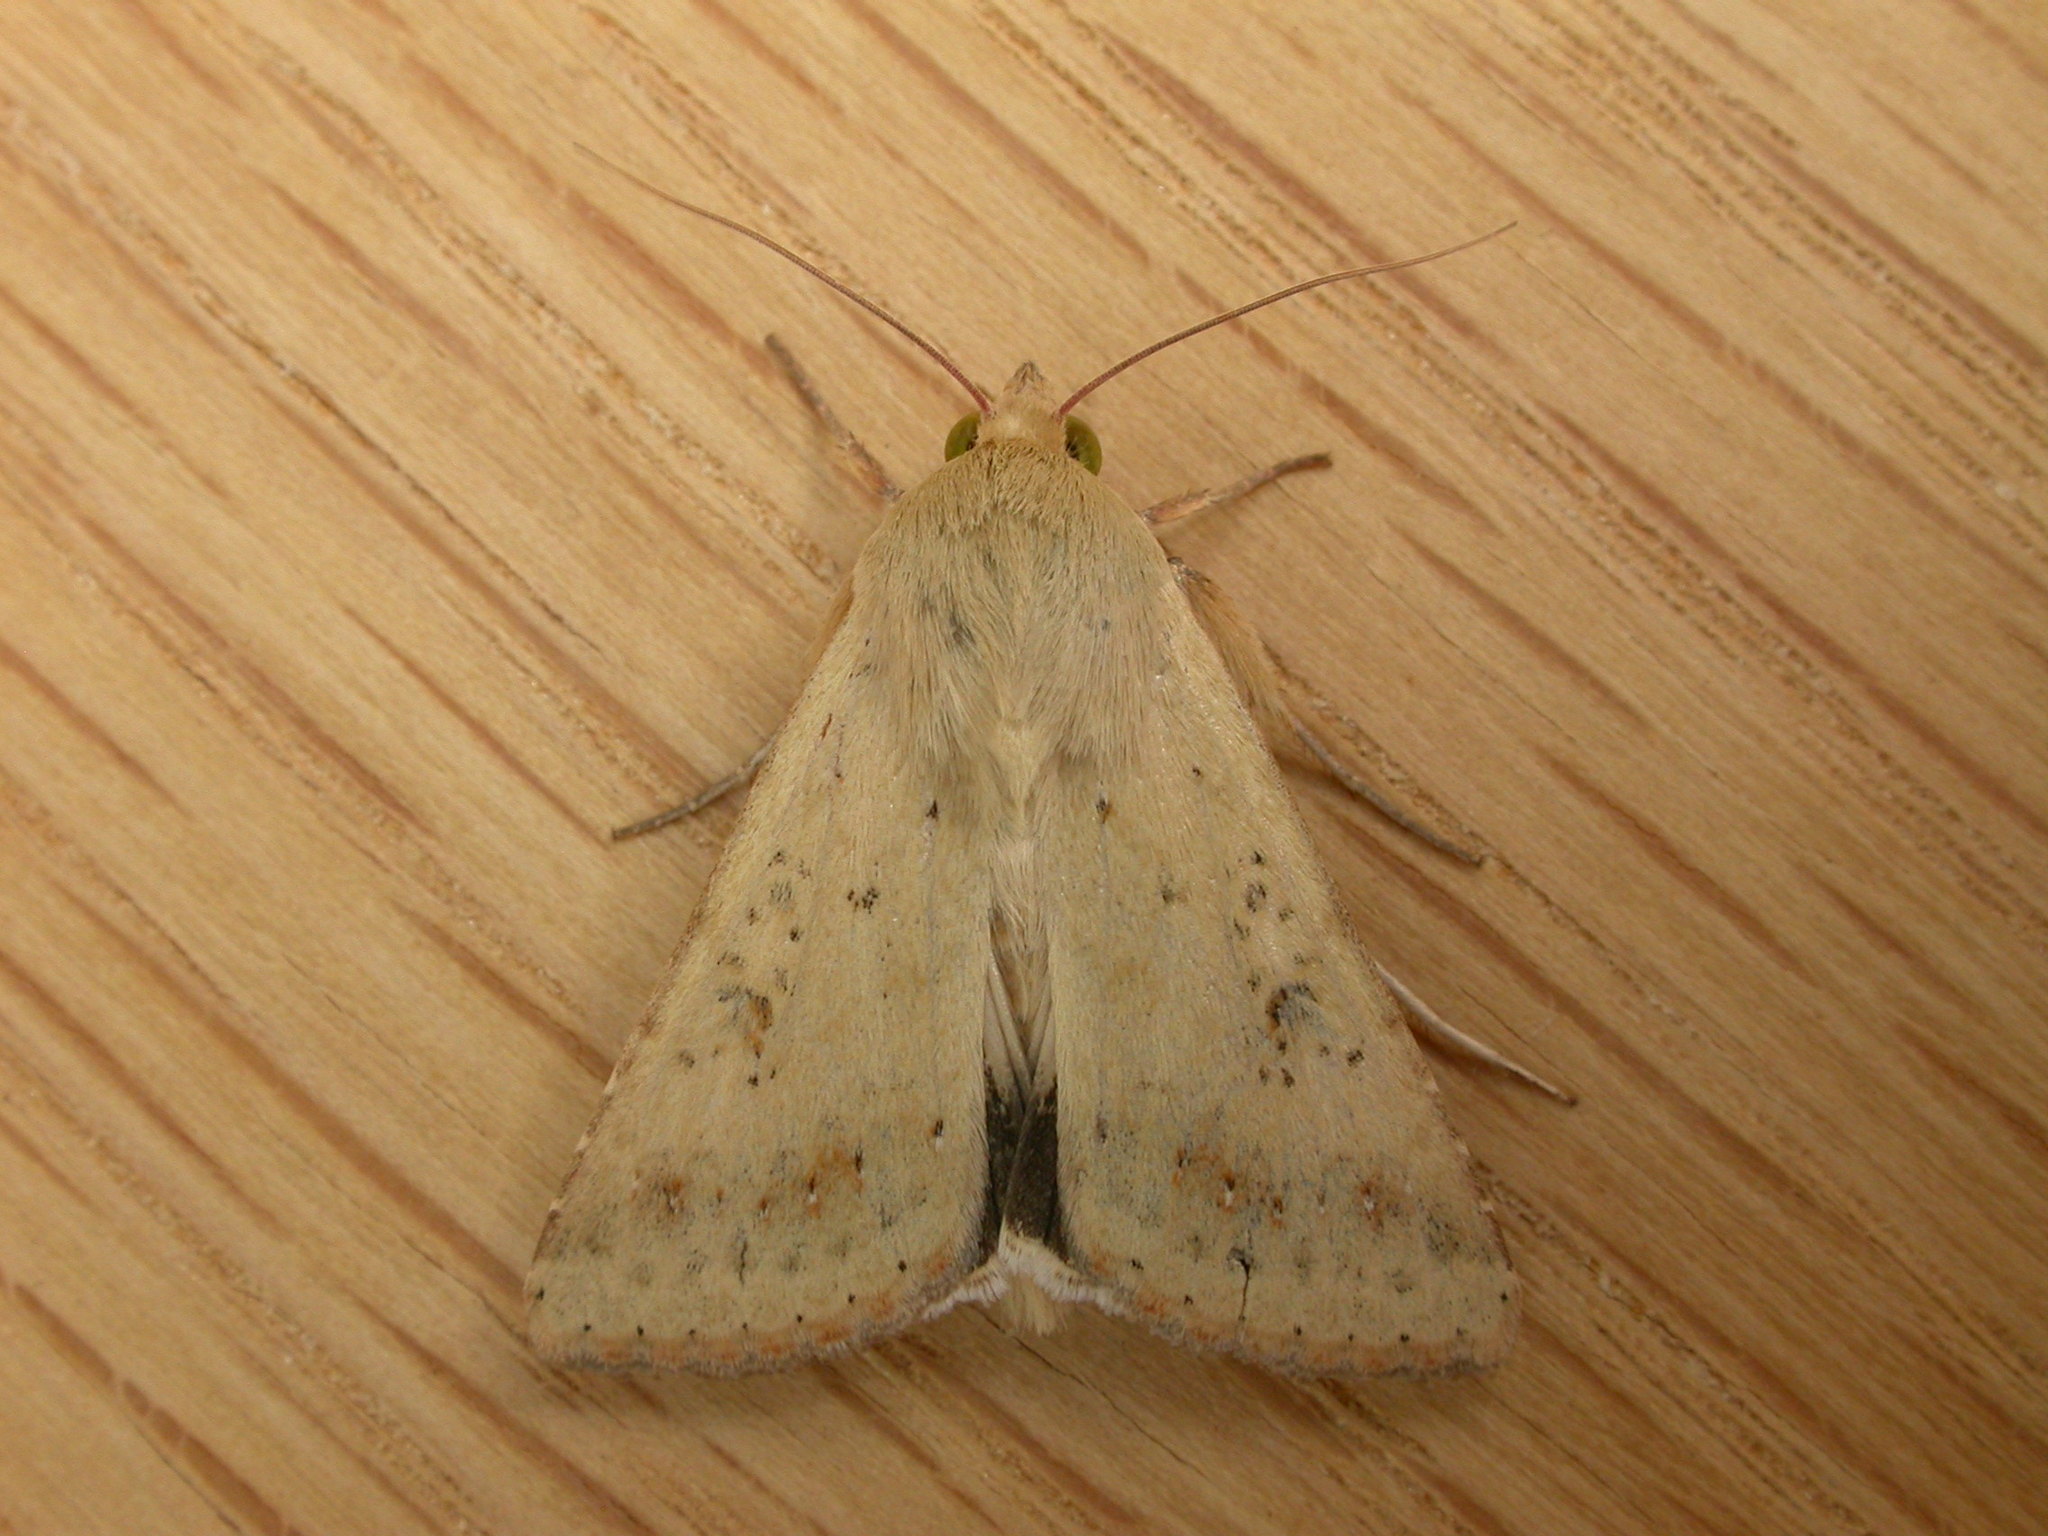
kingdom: Animalia
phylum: Arthropoda
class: Insecta
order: Lepidoptera
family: Noctuidae
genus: Helicoverpa
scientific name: Helicoverpa punctigera
